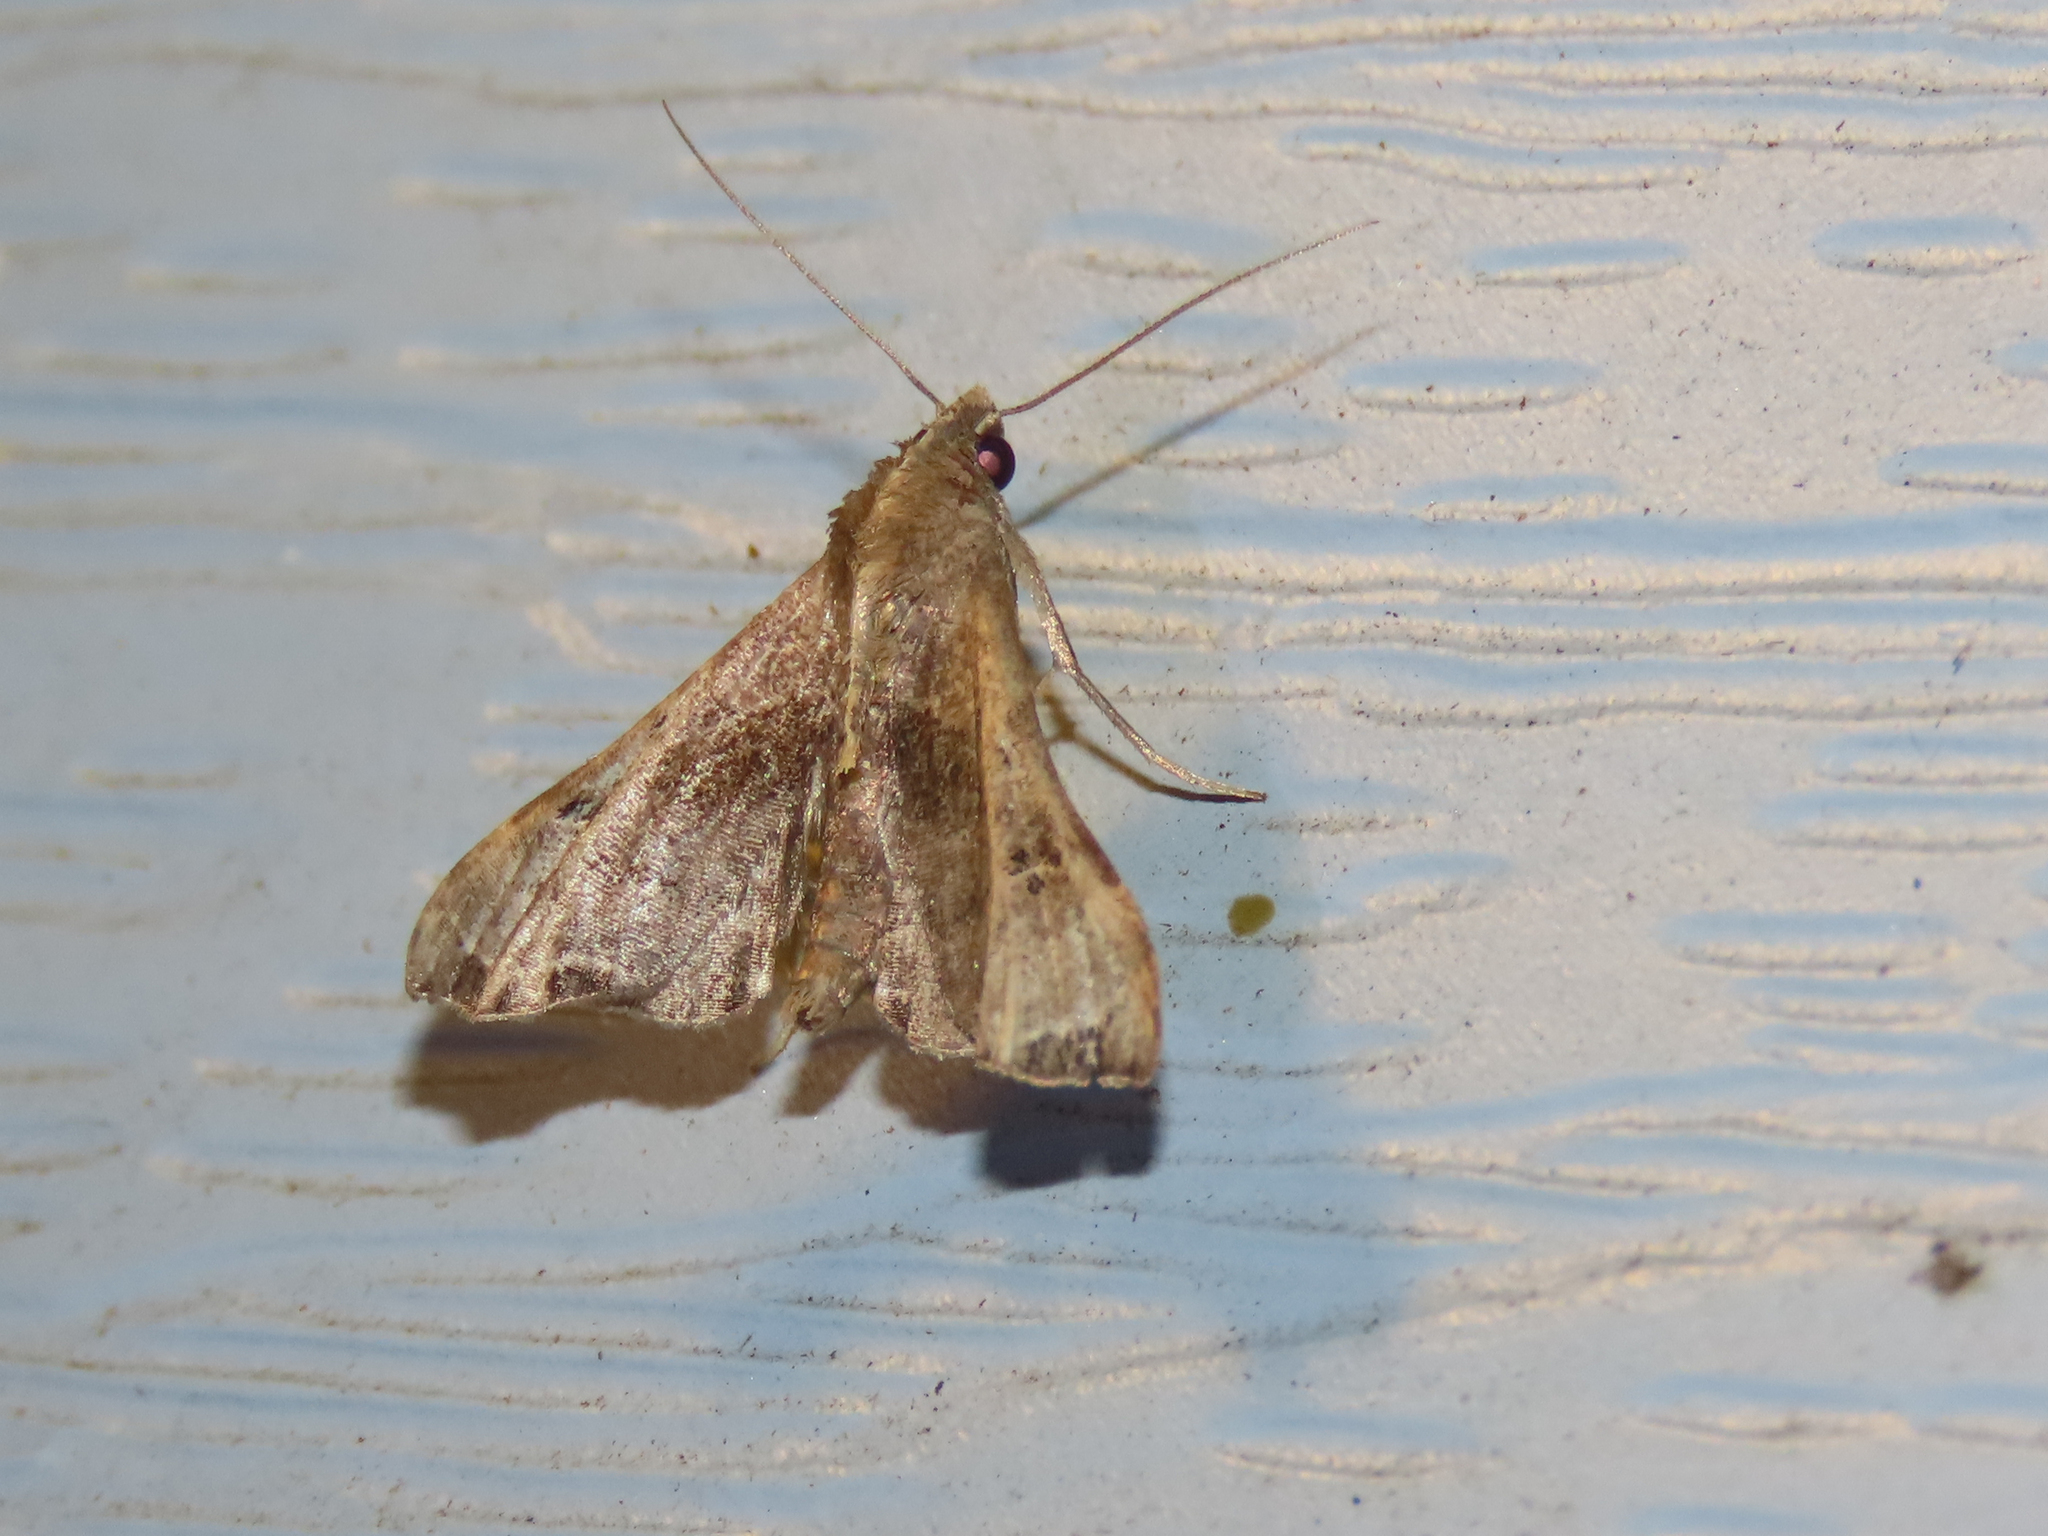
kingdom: Animalia
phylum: Arthropoda
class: Insecta
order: Lepidoptera
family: Erebidae
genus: Palthis
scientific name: Palthis asopialis
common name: Faint-spotted palthis moth
